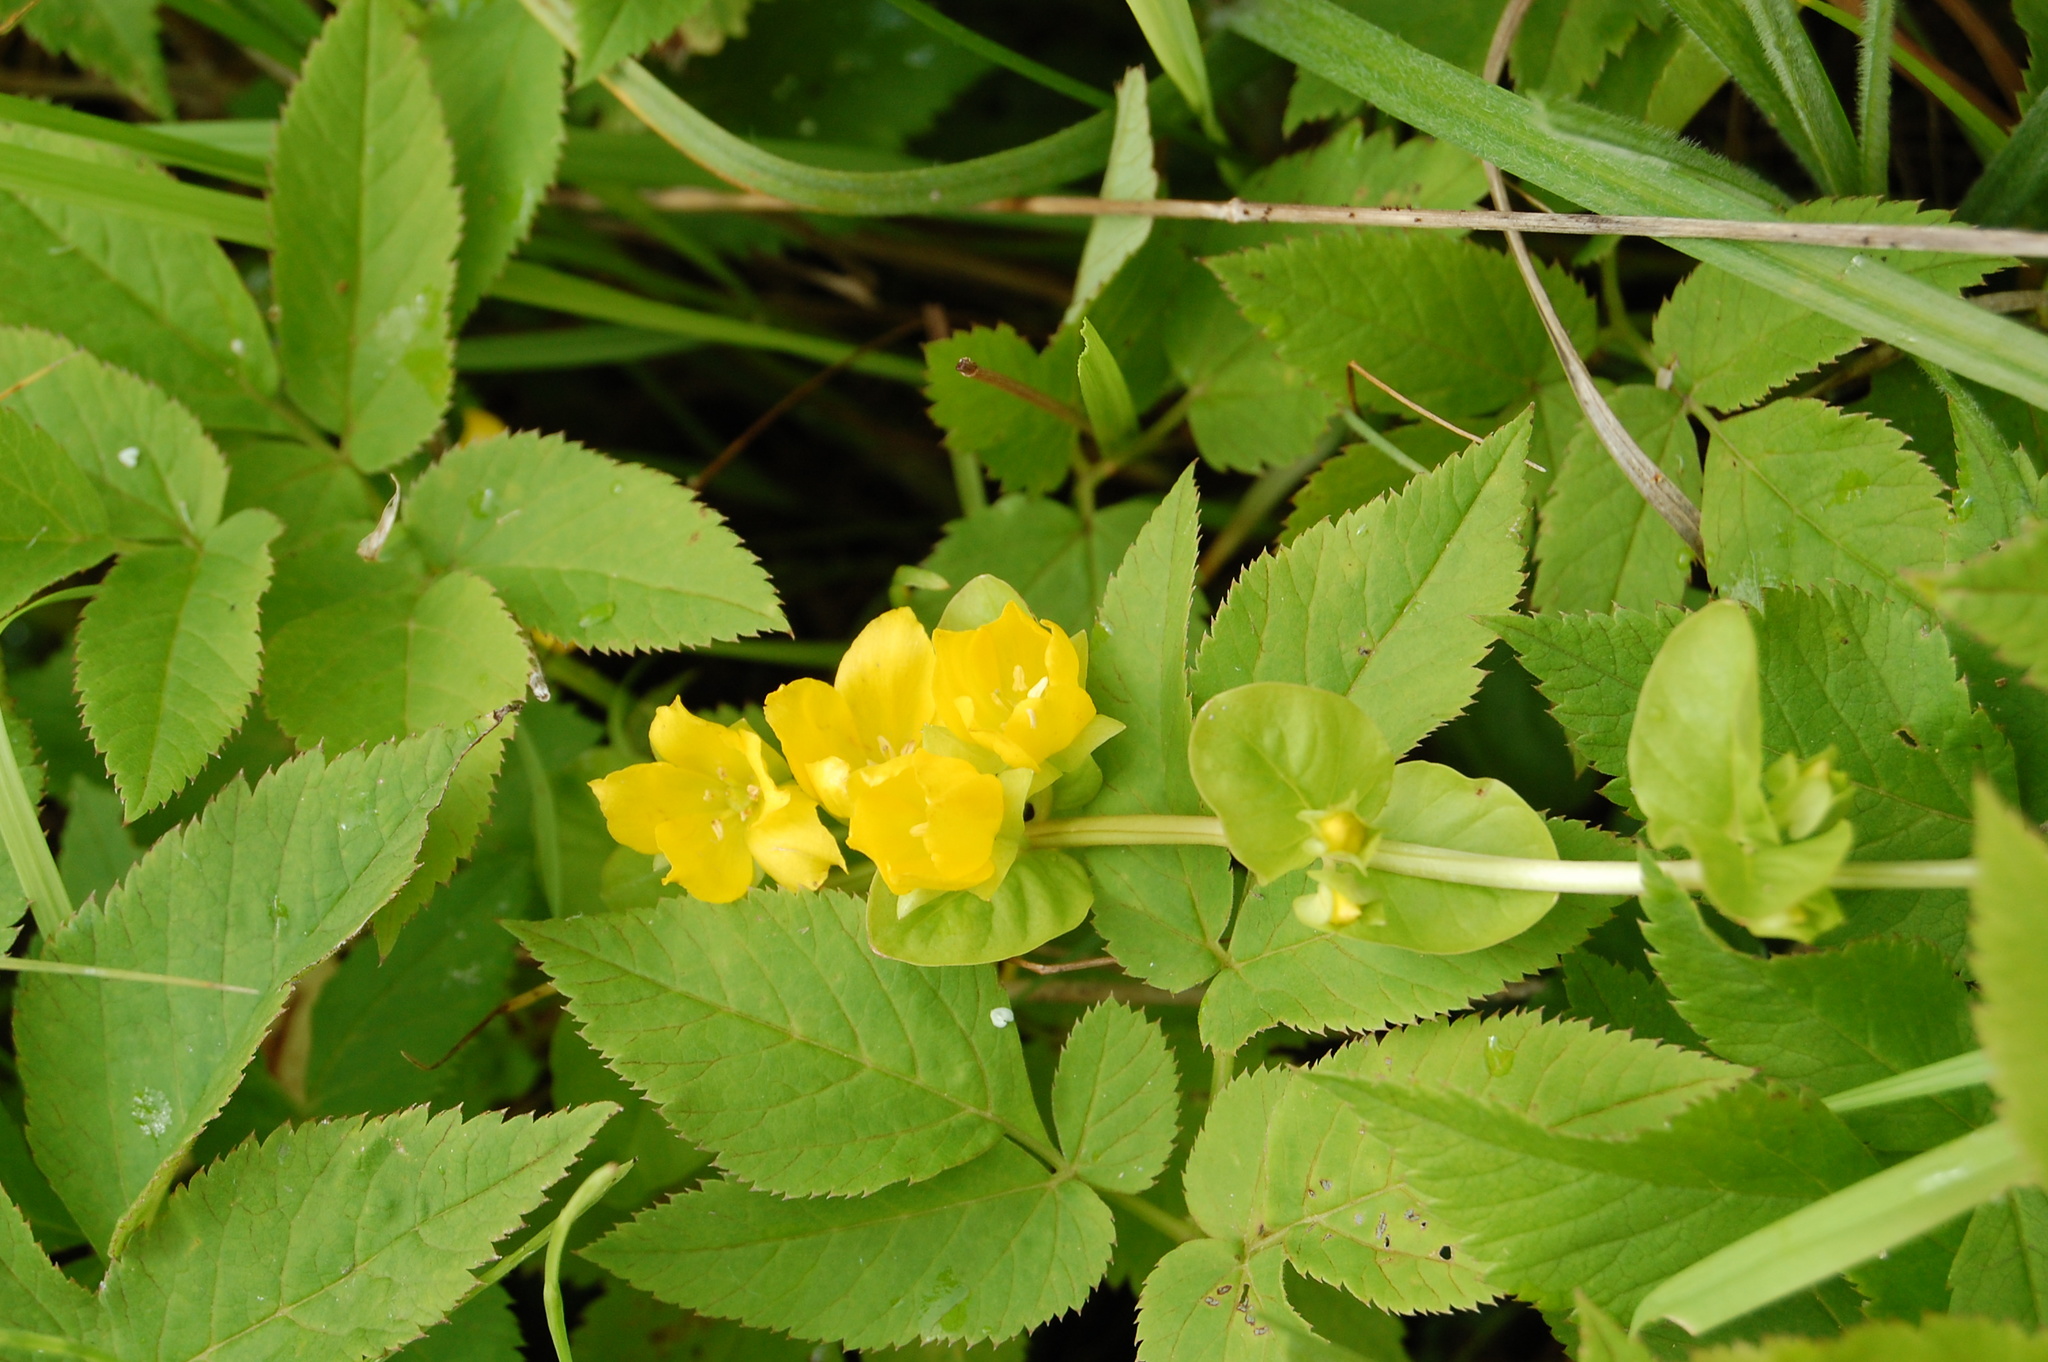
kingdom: Plantae
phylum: Tracheophyta
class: Magnoliopsida
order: Ericales
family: Primulaceae
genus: Lysimachia
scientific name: Lysimachia nummularia
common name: Moneywort
